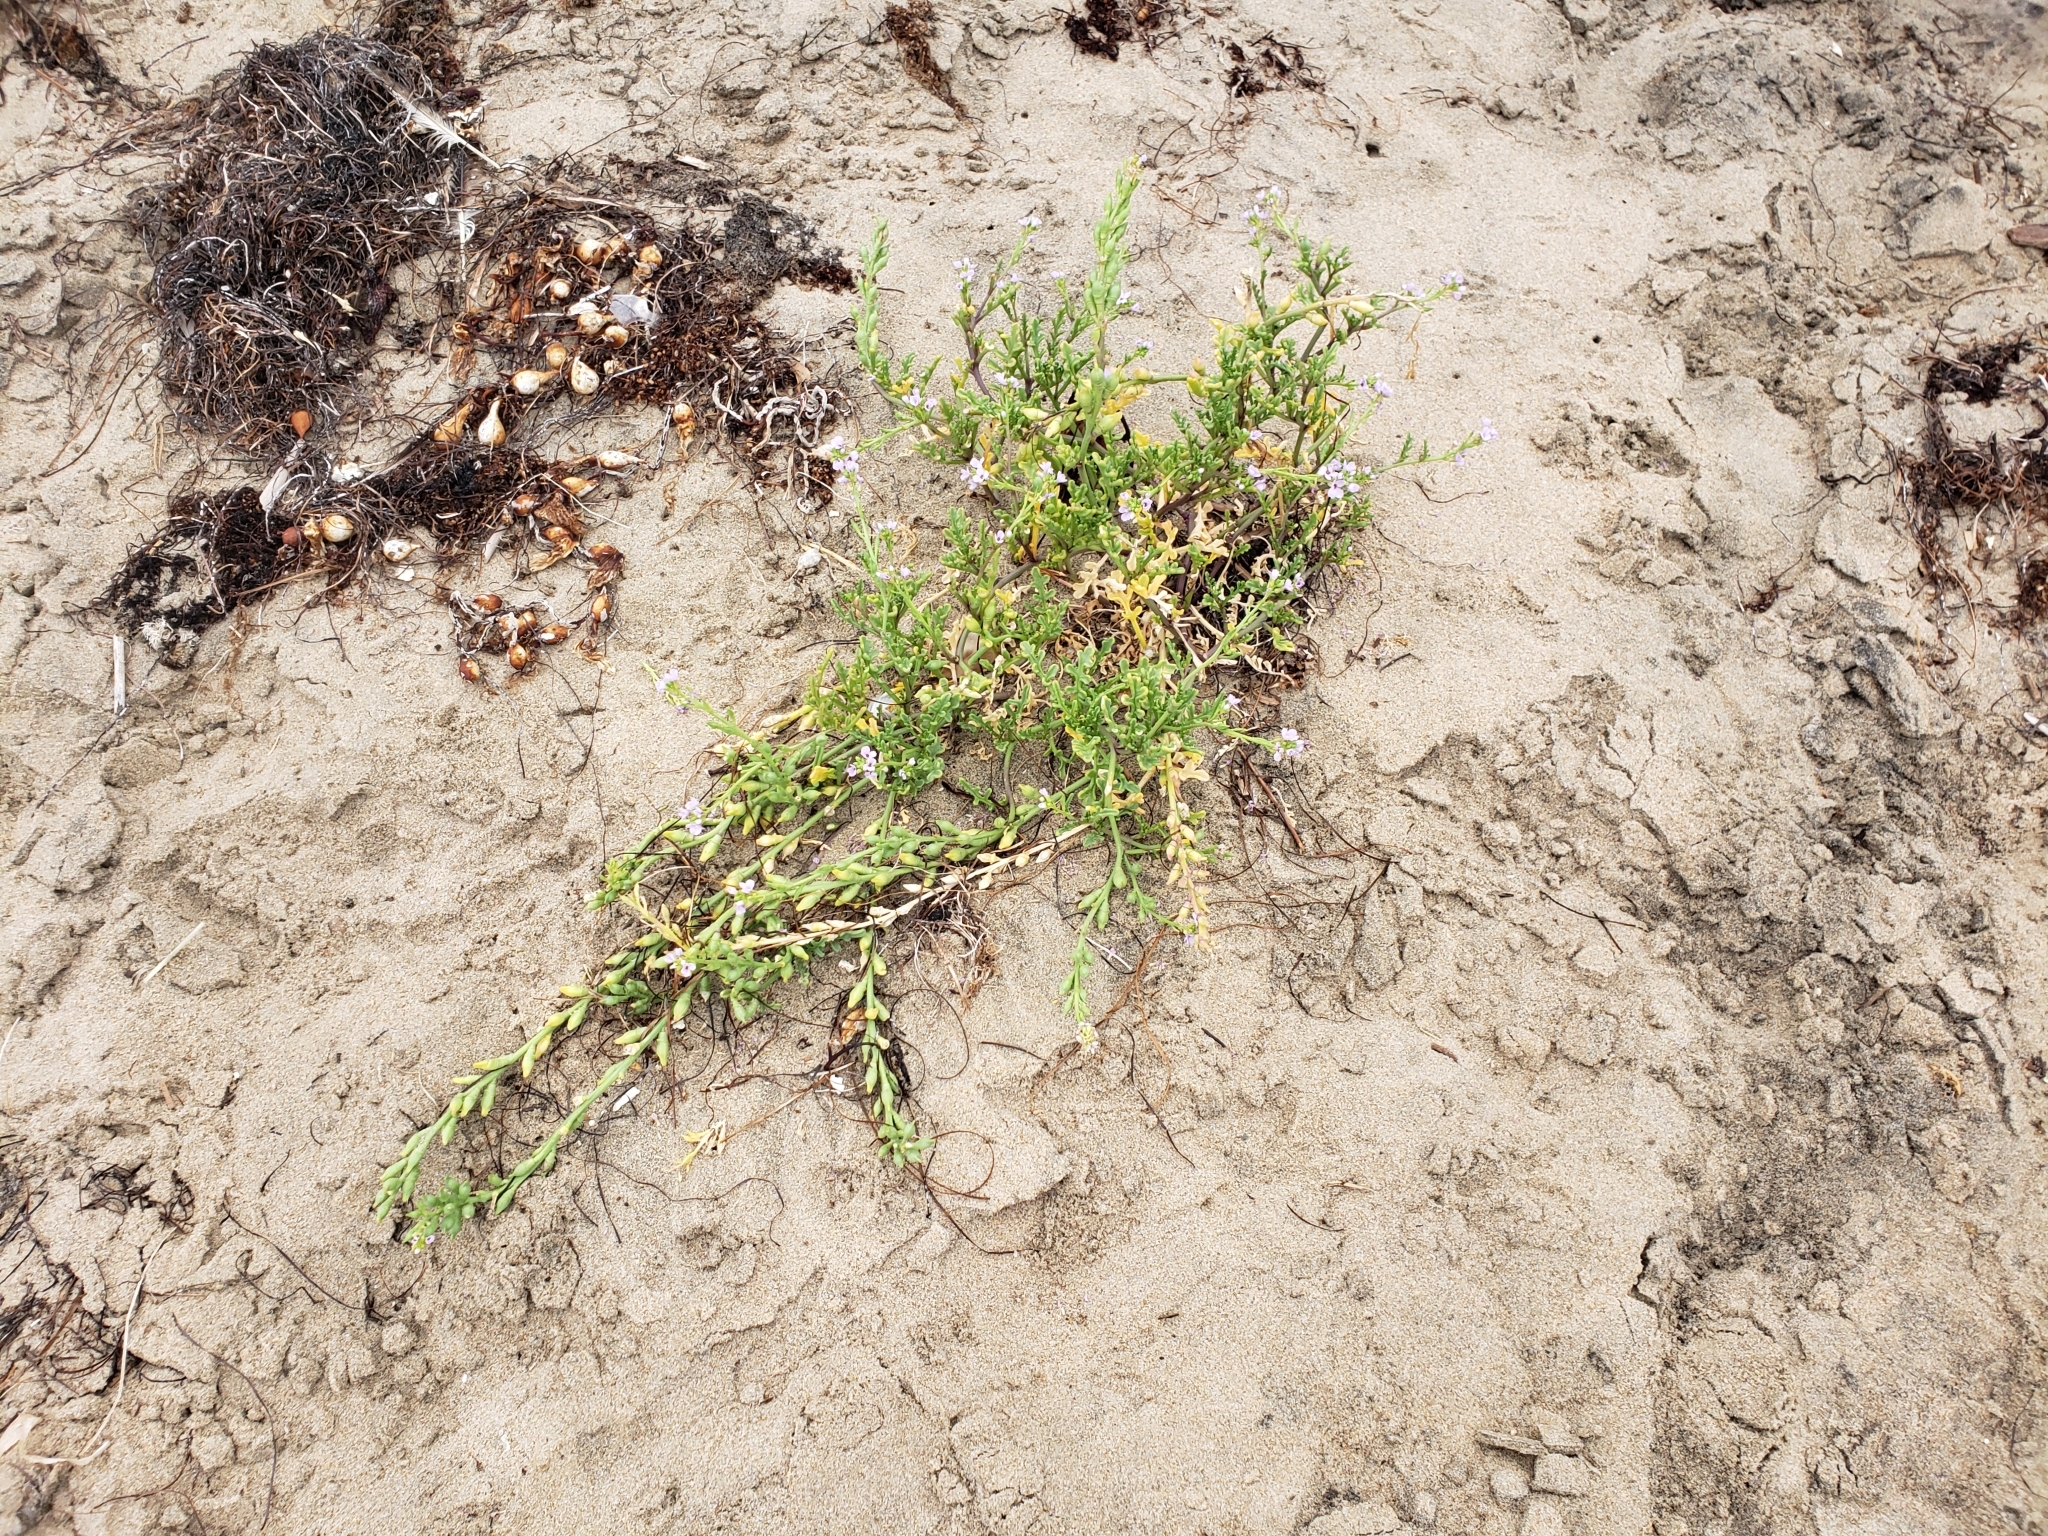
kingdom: Plantae
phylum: Tracheophyta
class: Magnoliopsida
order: Brassicales
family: Brassicaceae
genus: Cakile
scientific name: Cakile maritima
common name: Sea rocket
